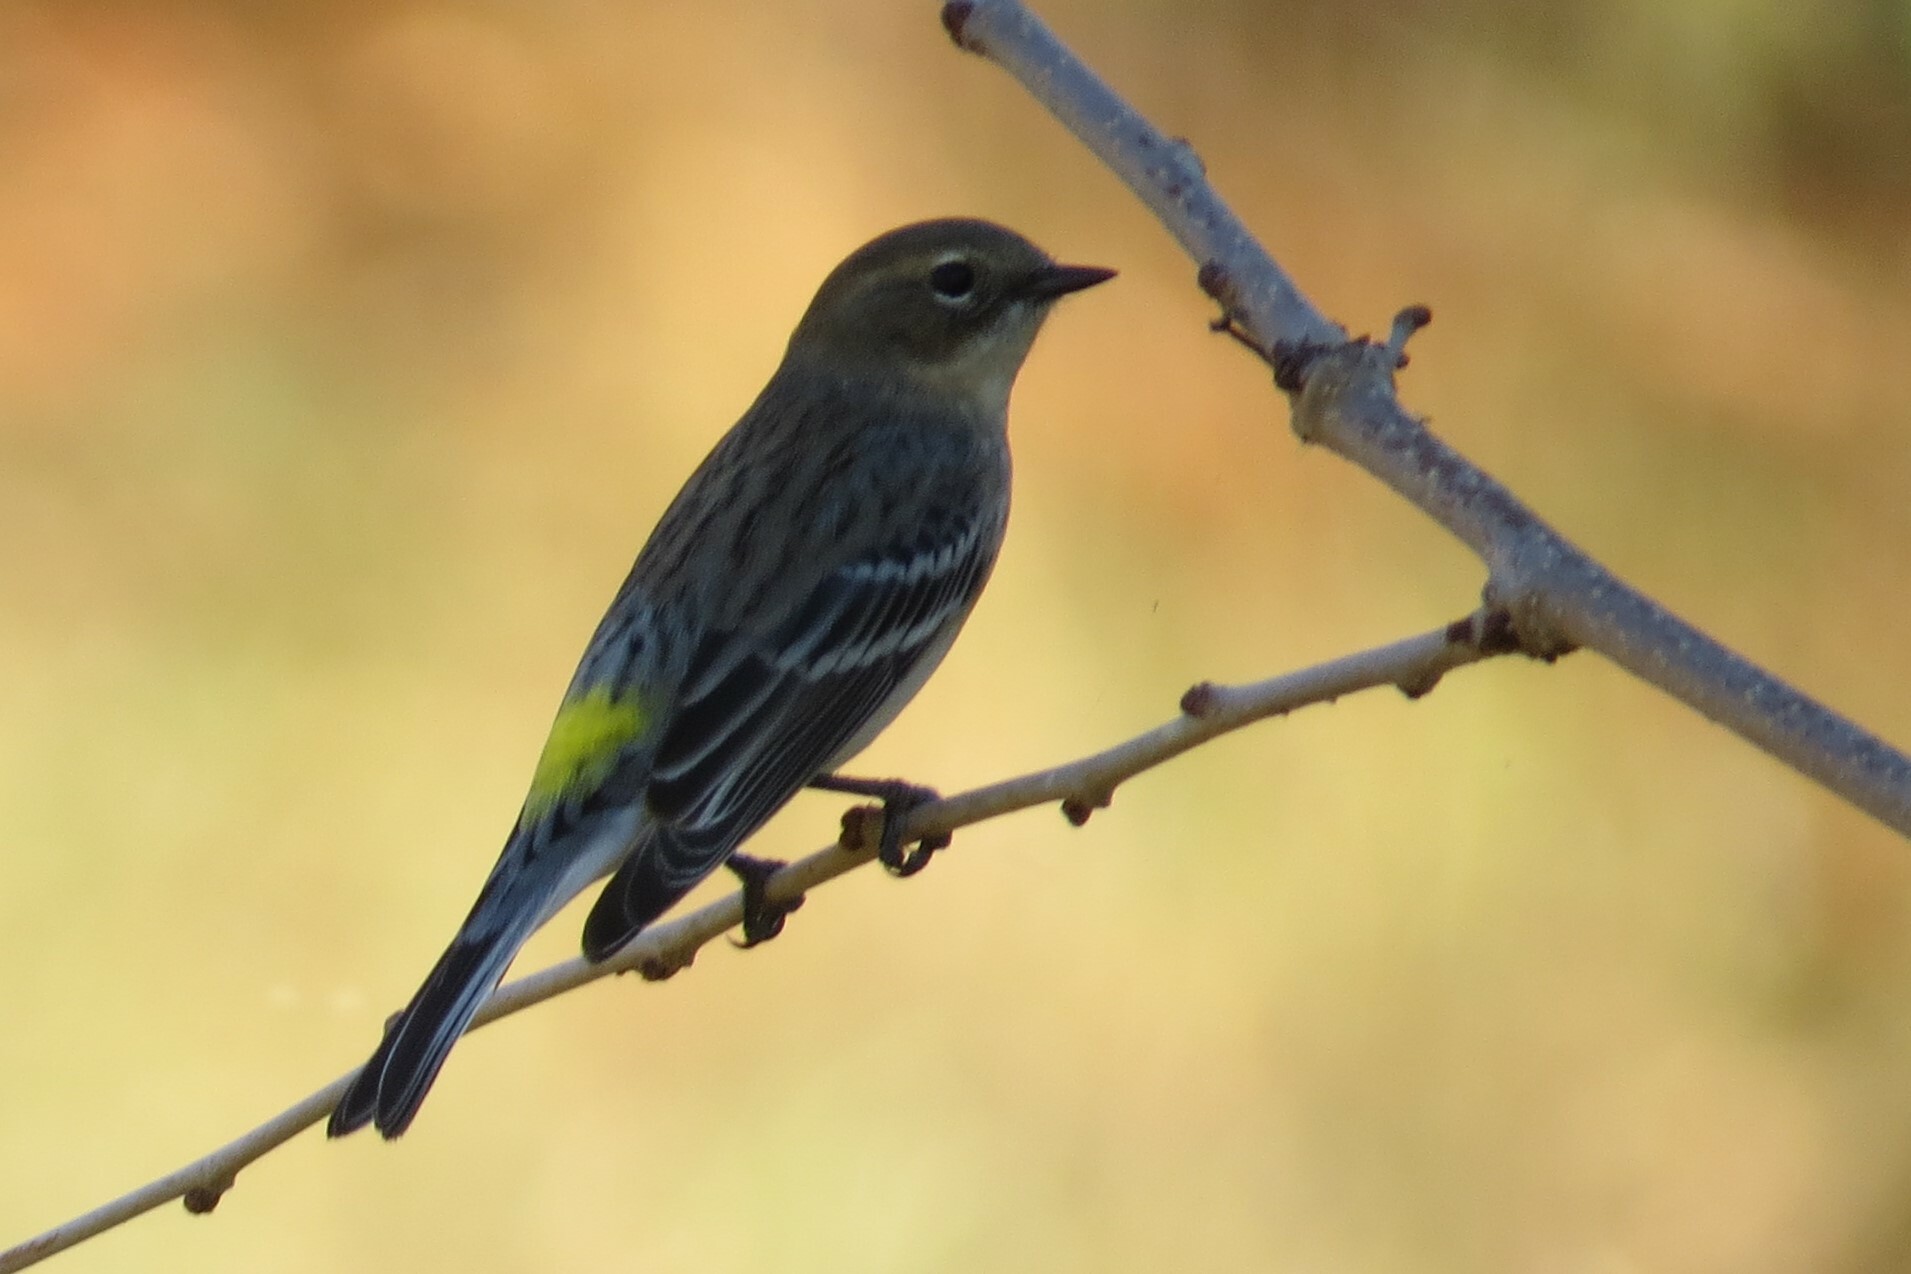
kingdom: Animalia
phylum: Chordata
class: Aves
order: Passeriformes
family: Parulidae
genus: Setophaga
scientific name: Setophaga coronata
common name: Myrtle warbler
